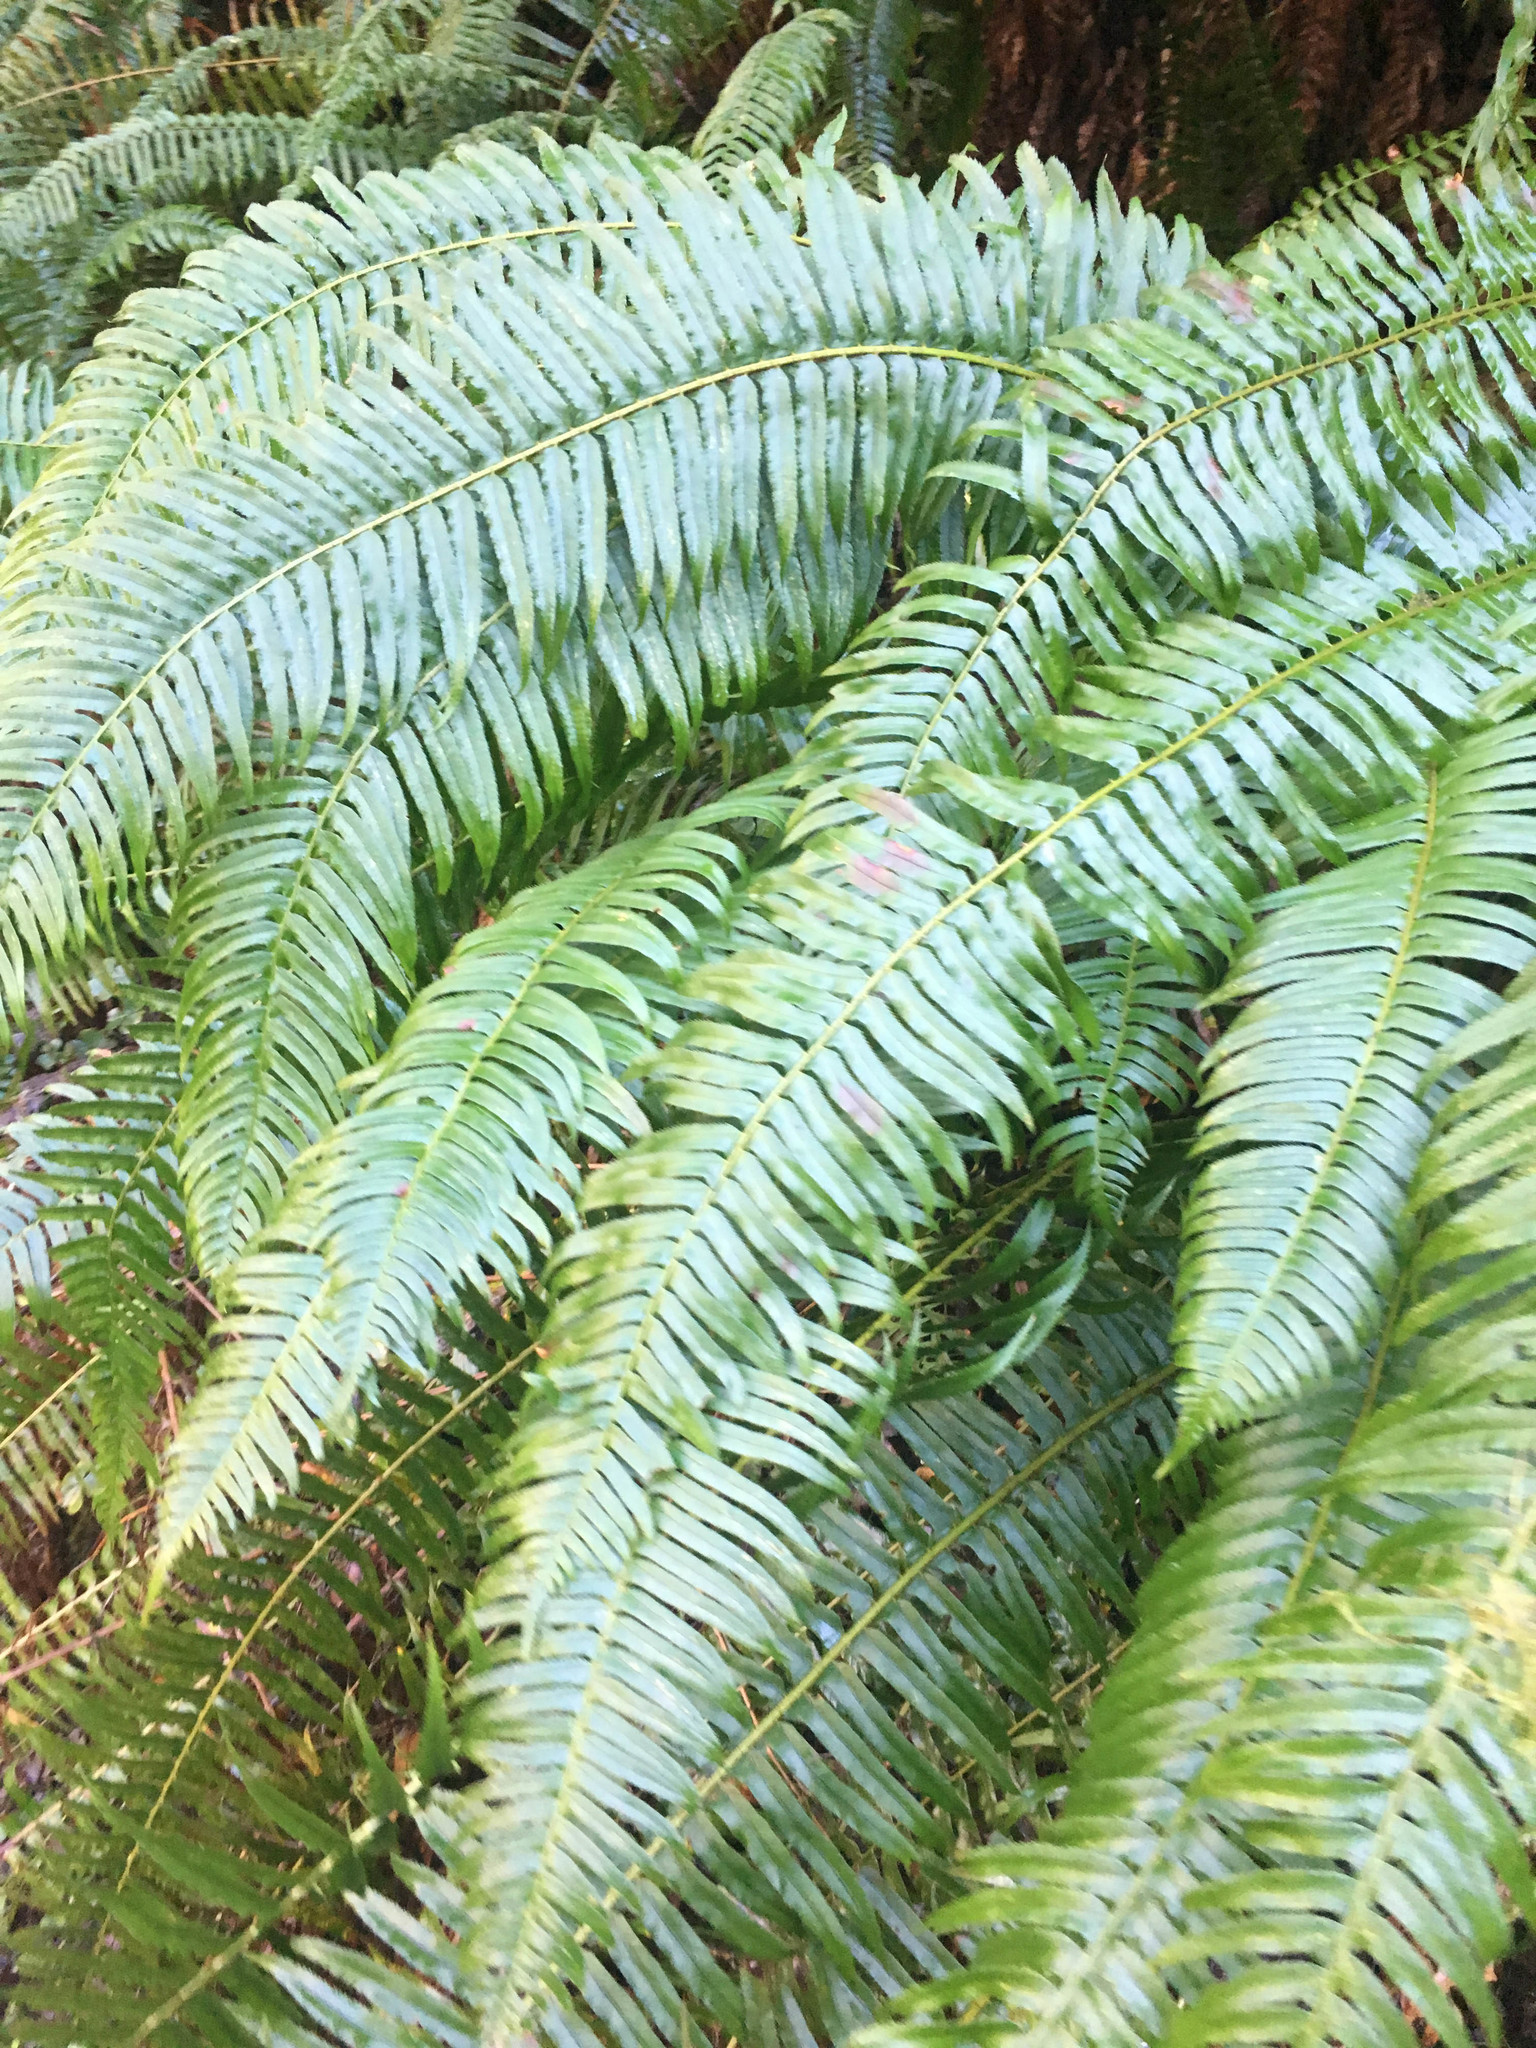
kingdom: Plantae
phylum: Tracheophyta
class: Polypodiopsida
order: Polypodiales
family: Dryopteridaceae
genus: Polystichum
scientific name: Polystichum munitum
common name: Western sword-fern
